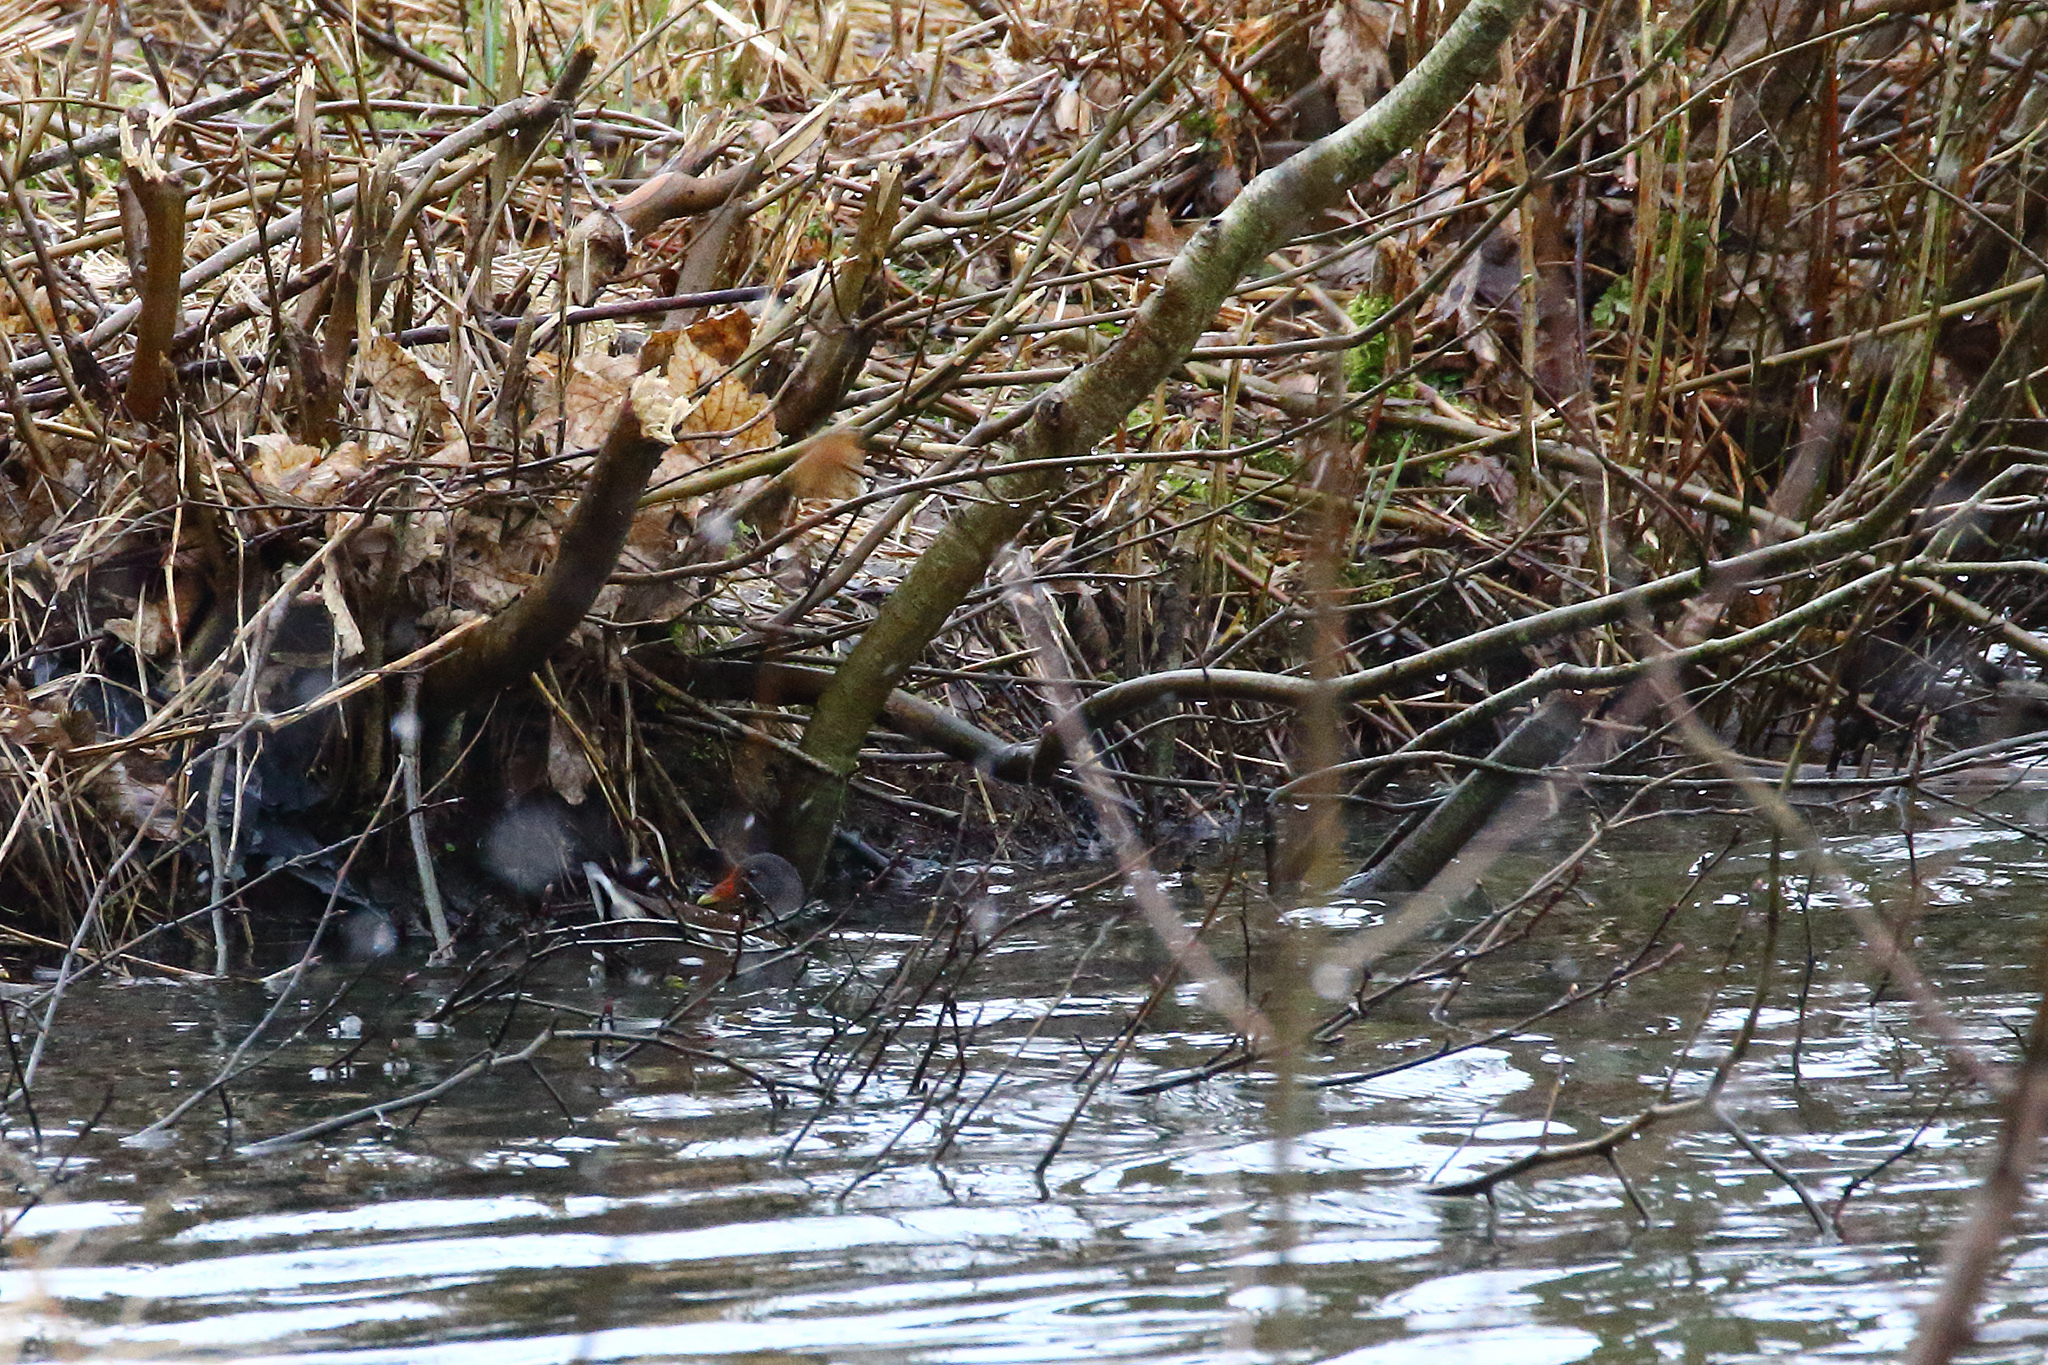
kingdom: Animalia
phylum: Chordata
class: Aves
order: Gruiformes
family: Rallidae
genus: Gallinula
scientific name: Gallinula chloropus
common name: Common moorhen
